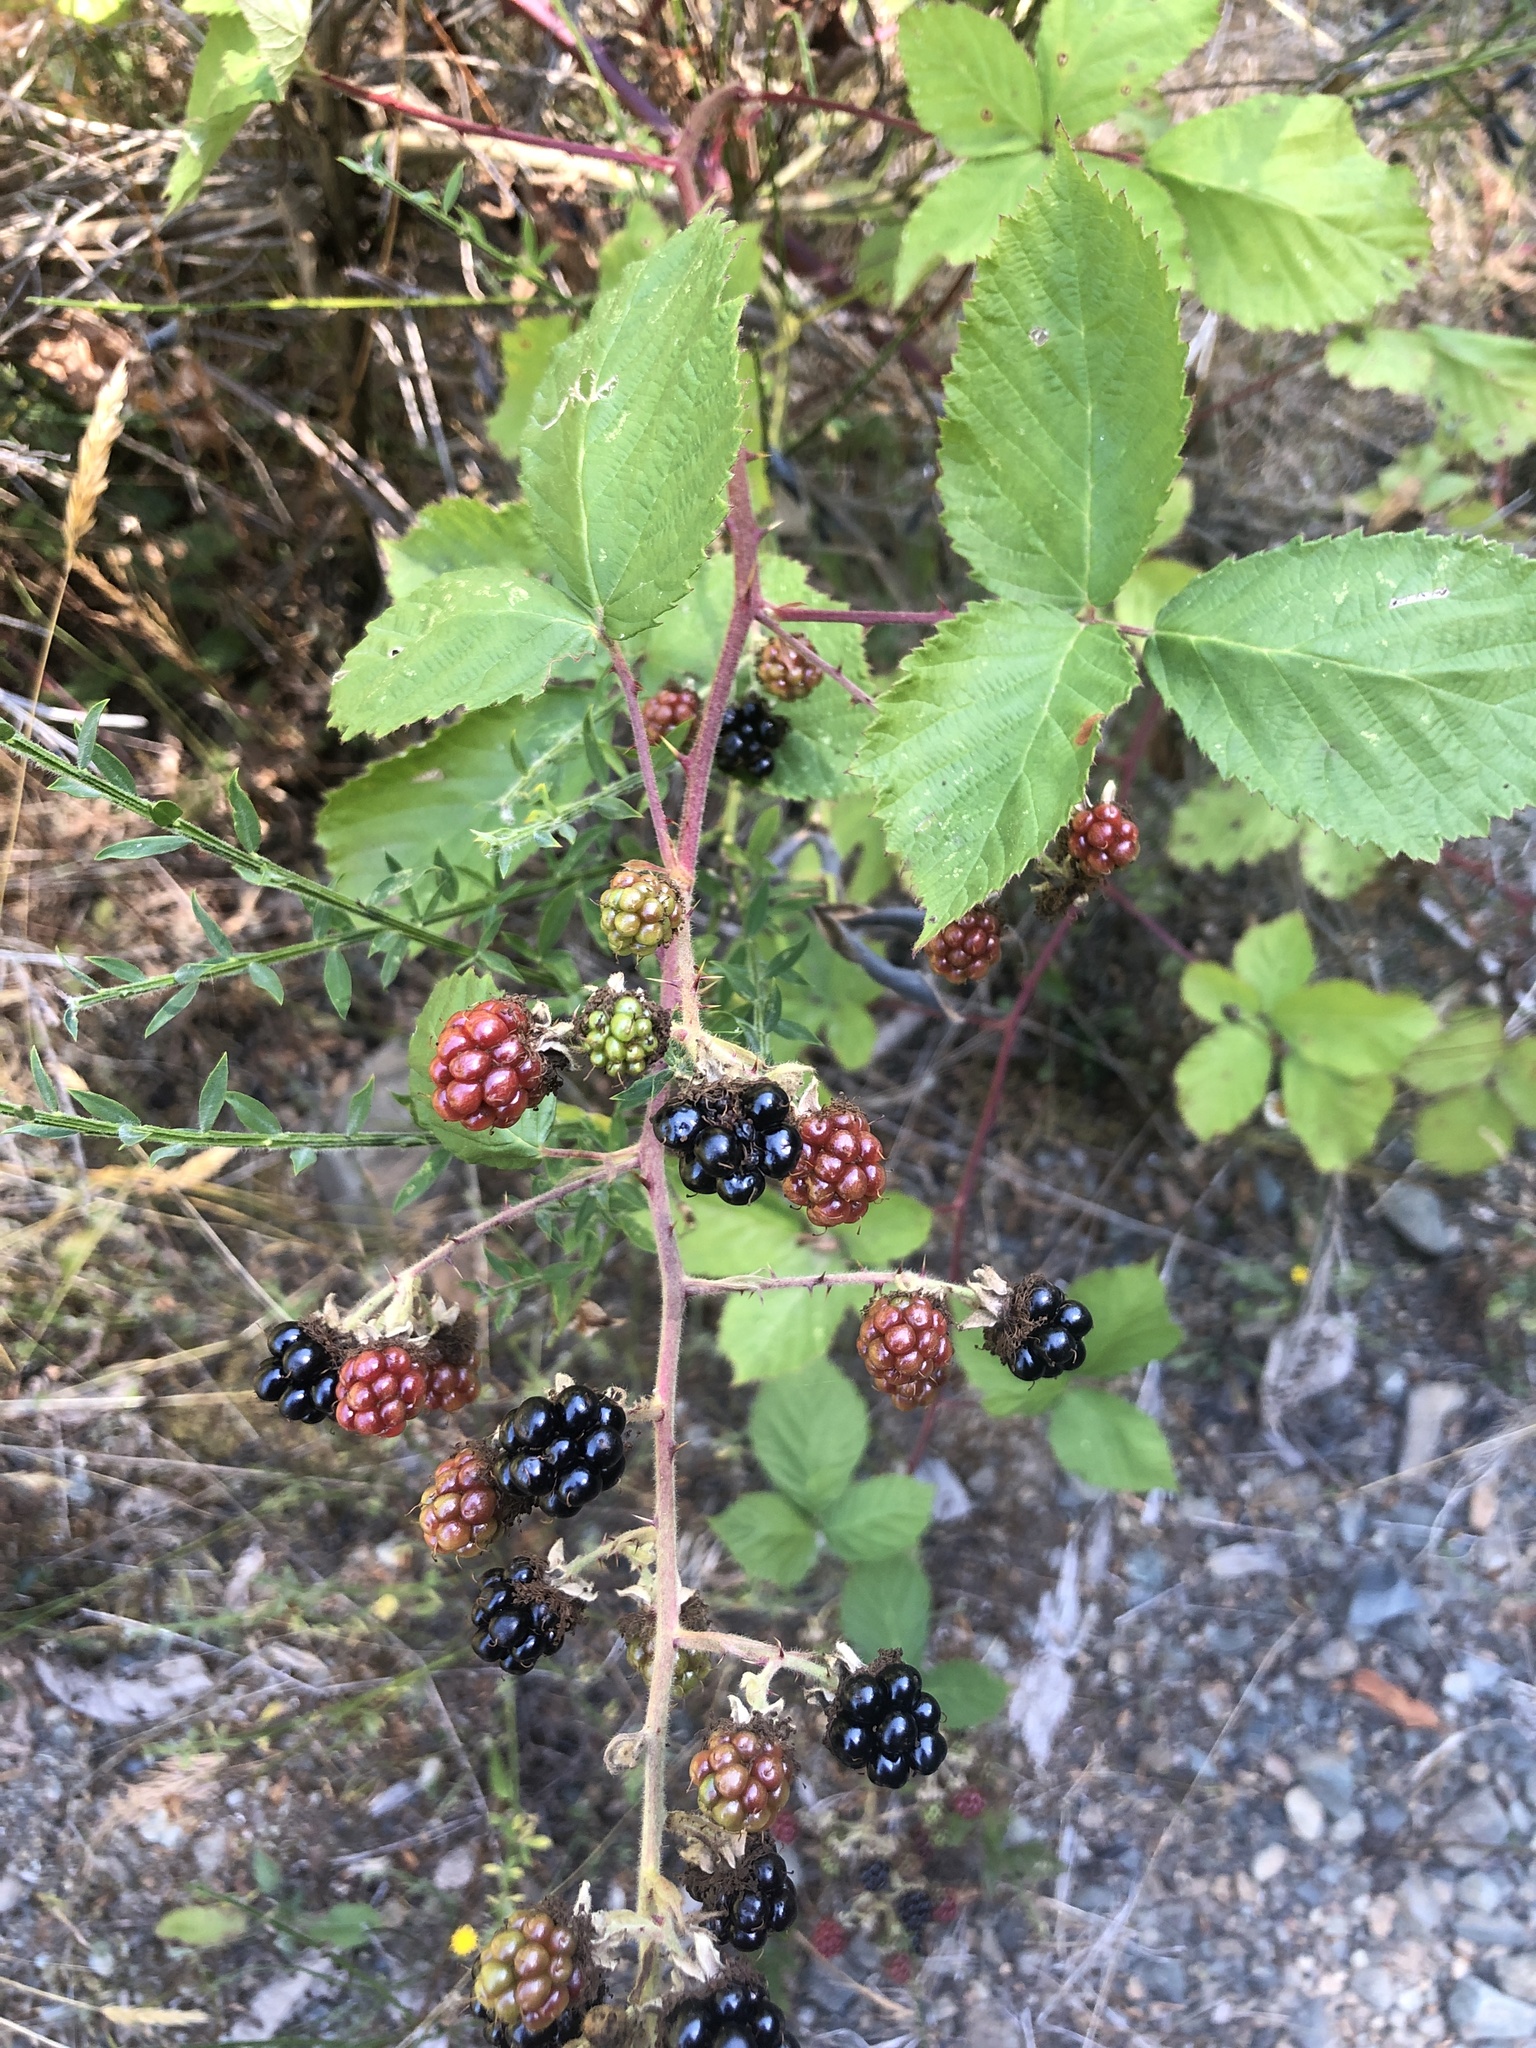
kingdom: Plantae
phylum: Tracheophyta
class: Magnoliopsida
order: Rosales
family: Rosaceae
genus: Rubus
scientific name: Rubus armeniacus
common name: Himalayan blackberry
